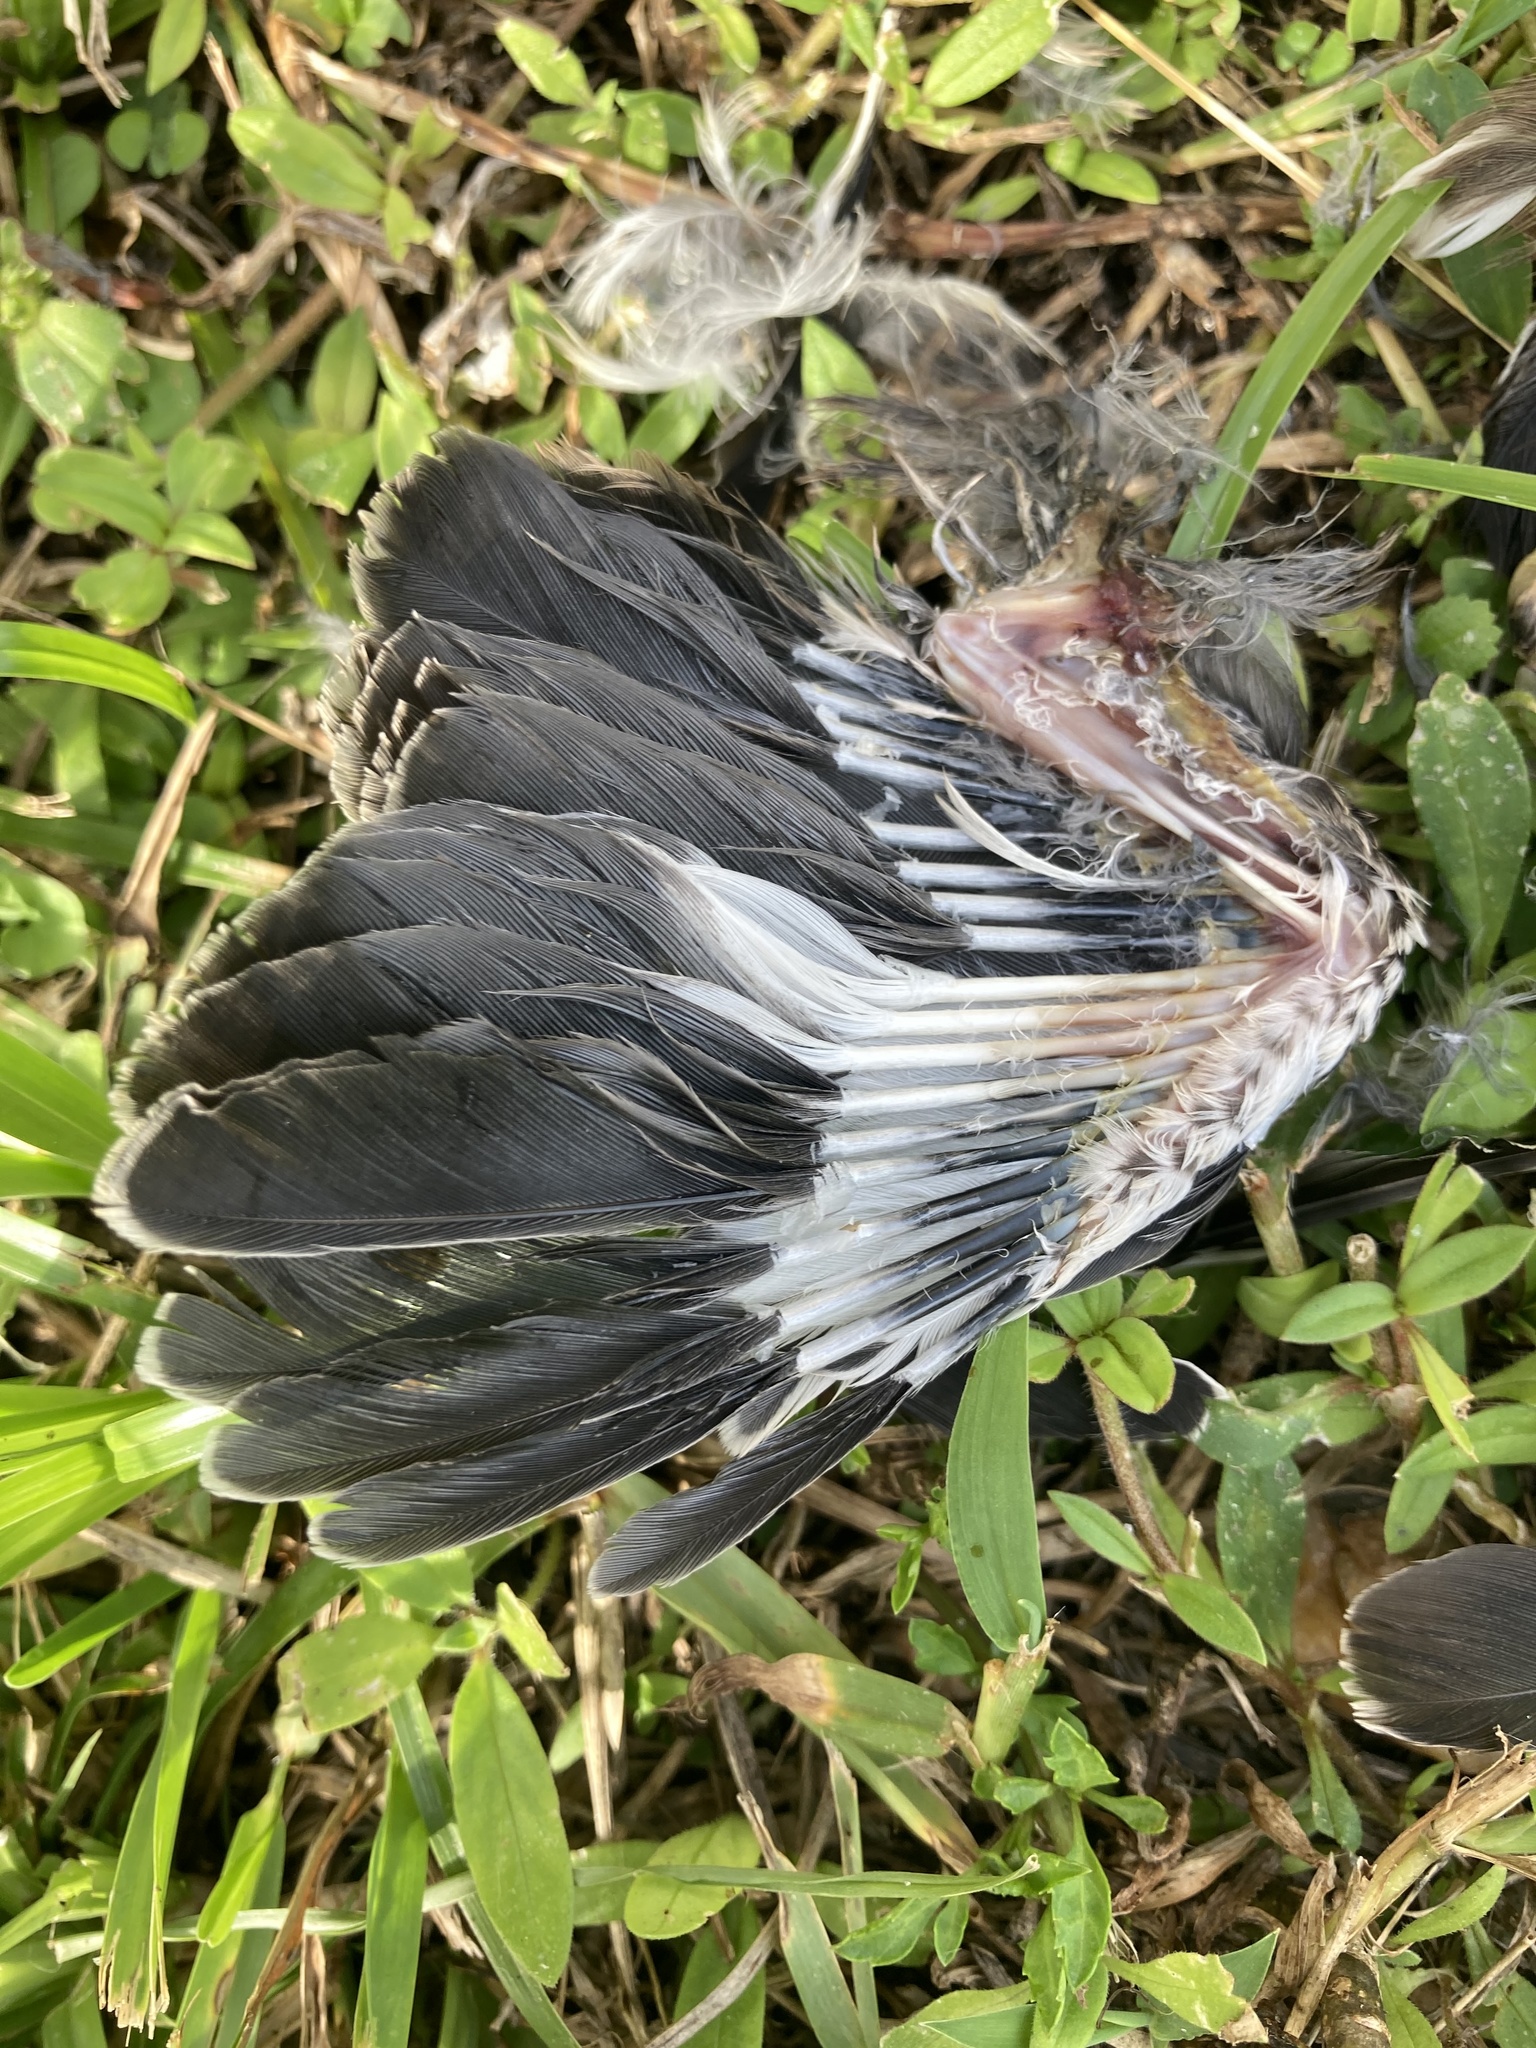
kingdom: Animalia
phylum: Chordata
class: Aves
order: Passeriformes
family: Mimidae
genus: Mimus
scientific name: Mimus polyglottos
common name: Northern mockingbird
